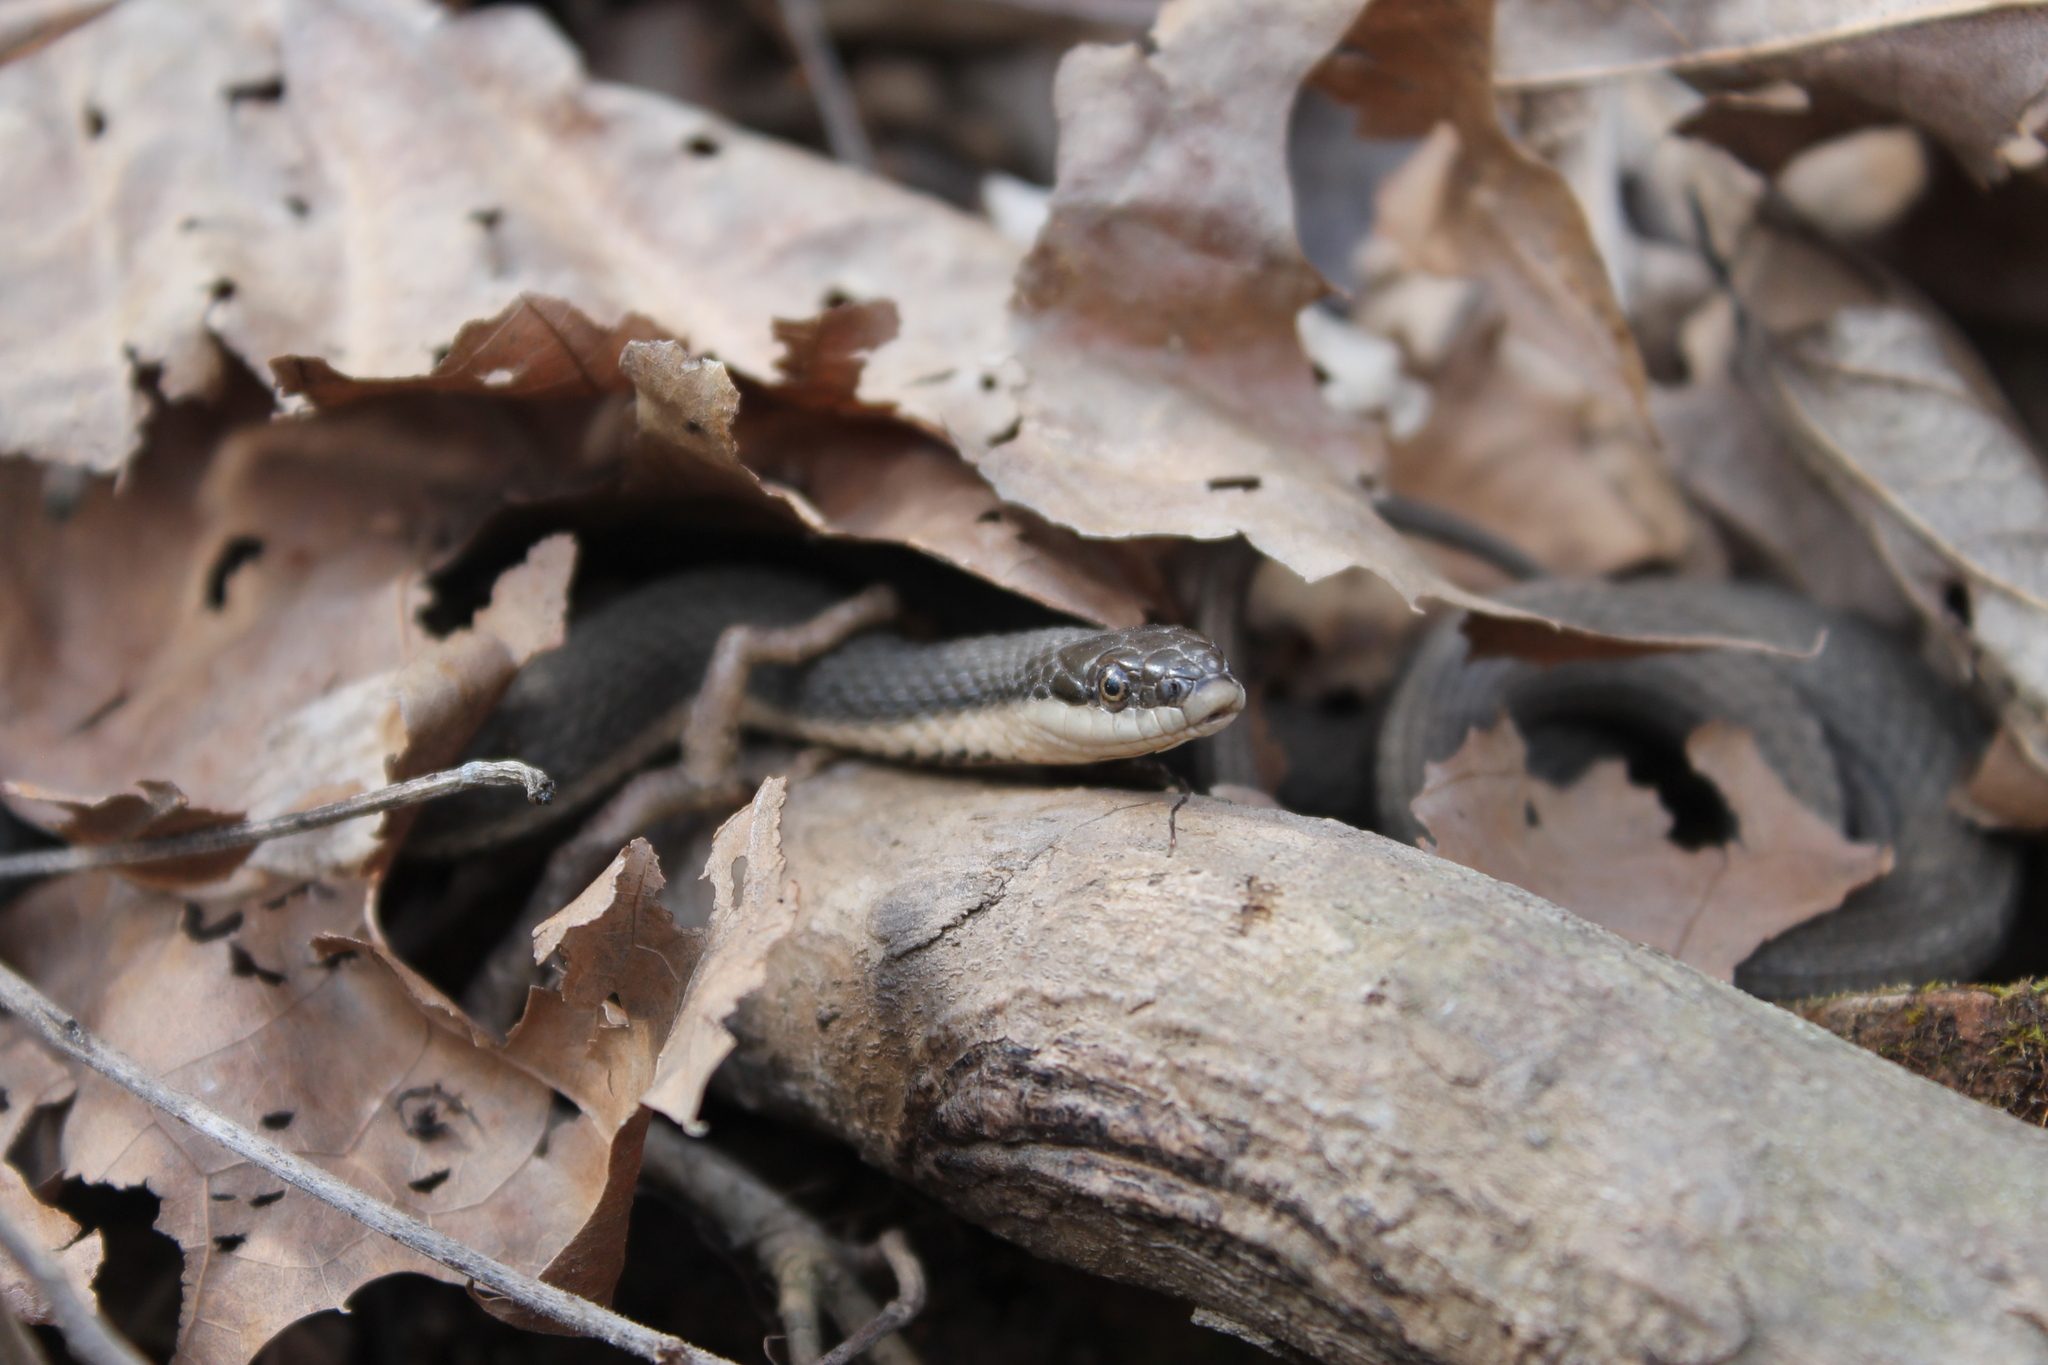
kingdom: Animalia
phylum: Chordata
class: Squamata
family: Colubridae
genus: Regina
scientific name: Regina septemvittata
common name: Queen snake
